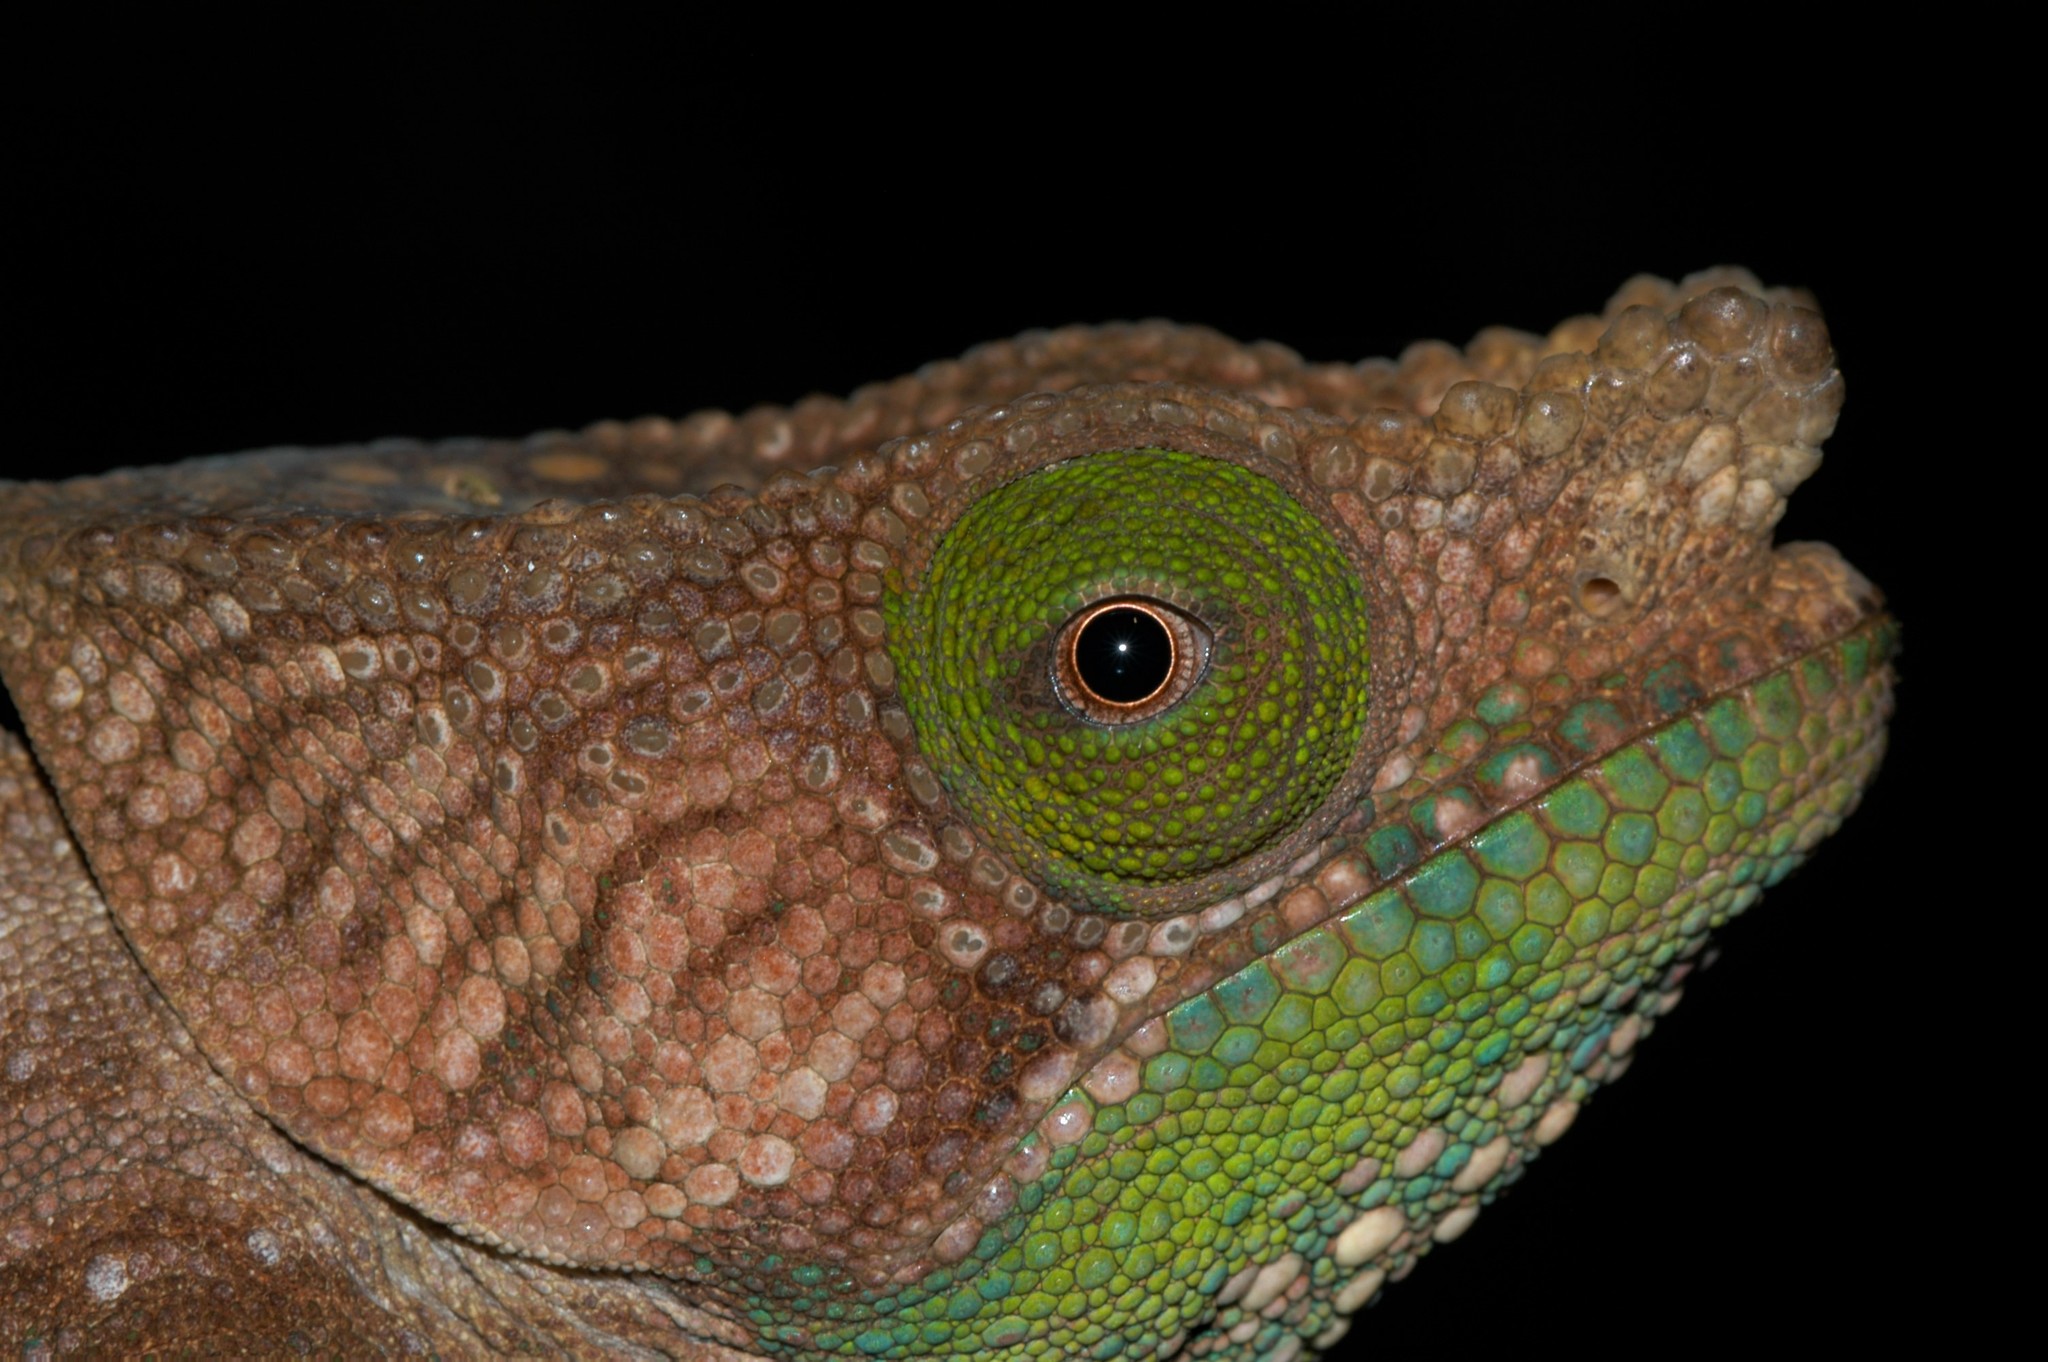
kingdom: Animalia
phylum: Chordata
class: Squamata
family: Chamaeleonidae
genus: Calumma
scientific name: Calumma oshaughnessyi
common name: O'shaughnessy's chameleon
